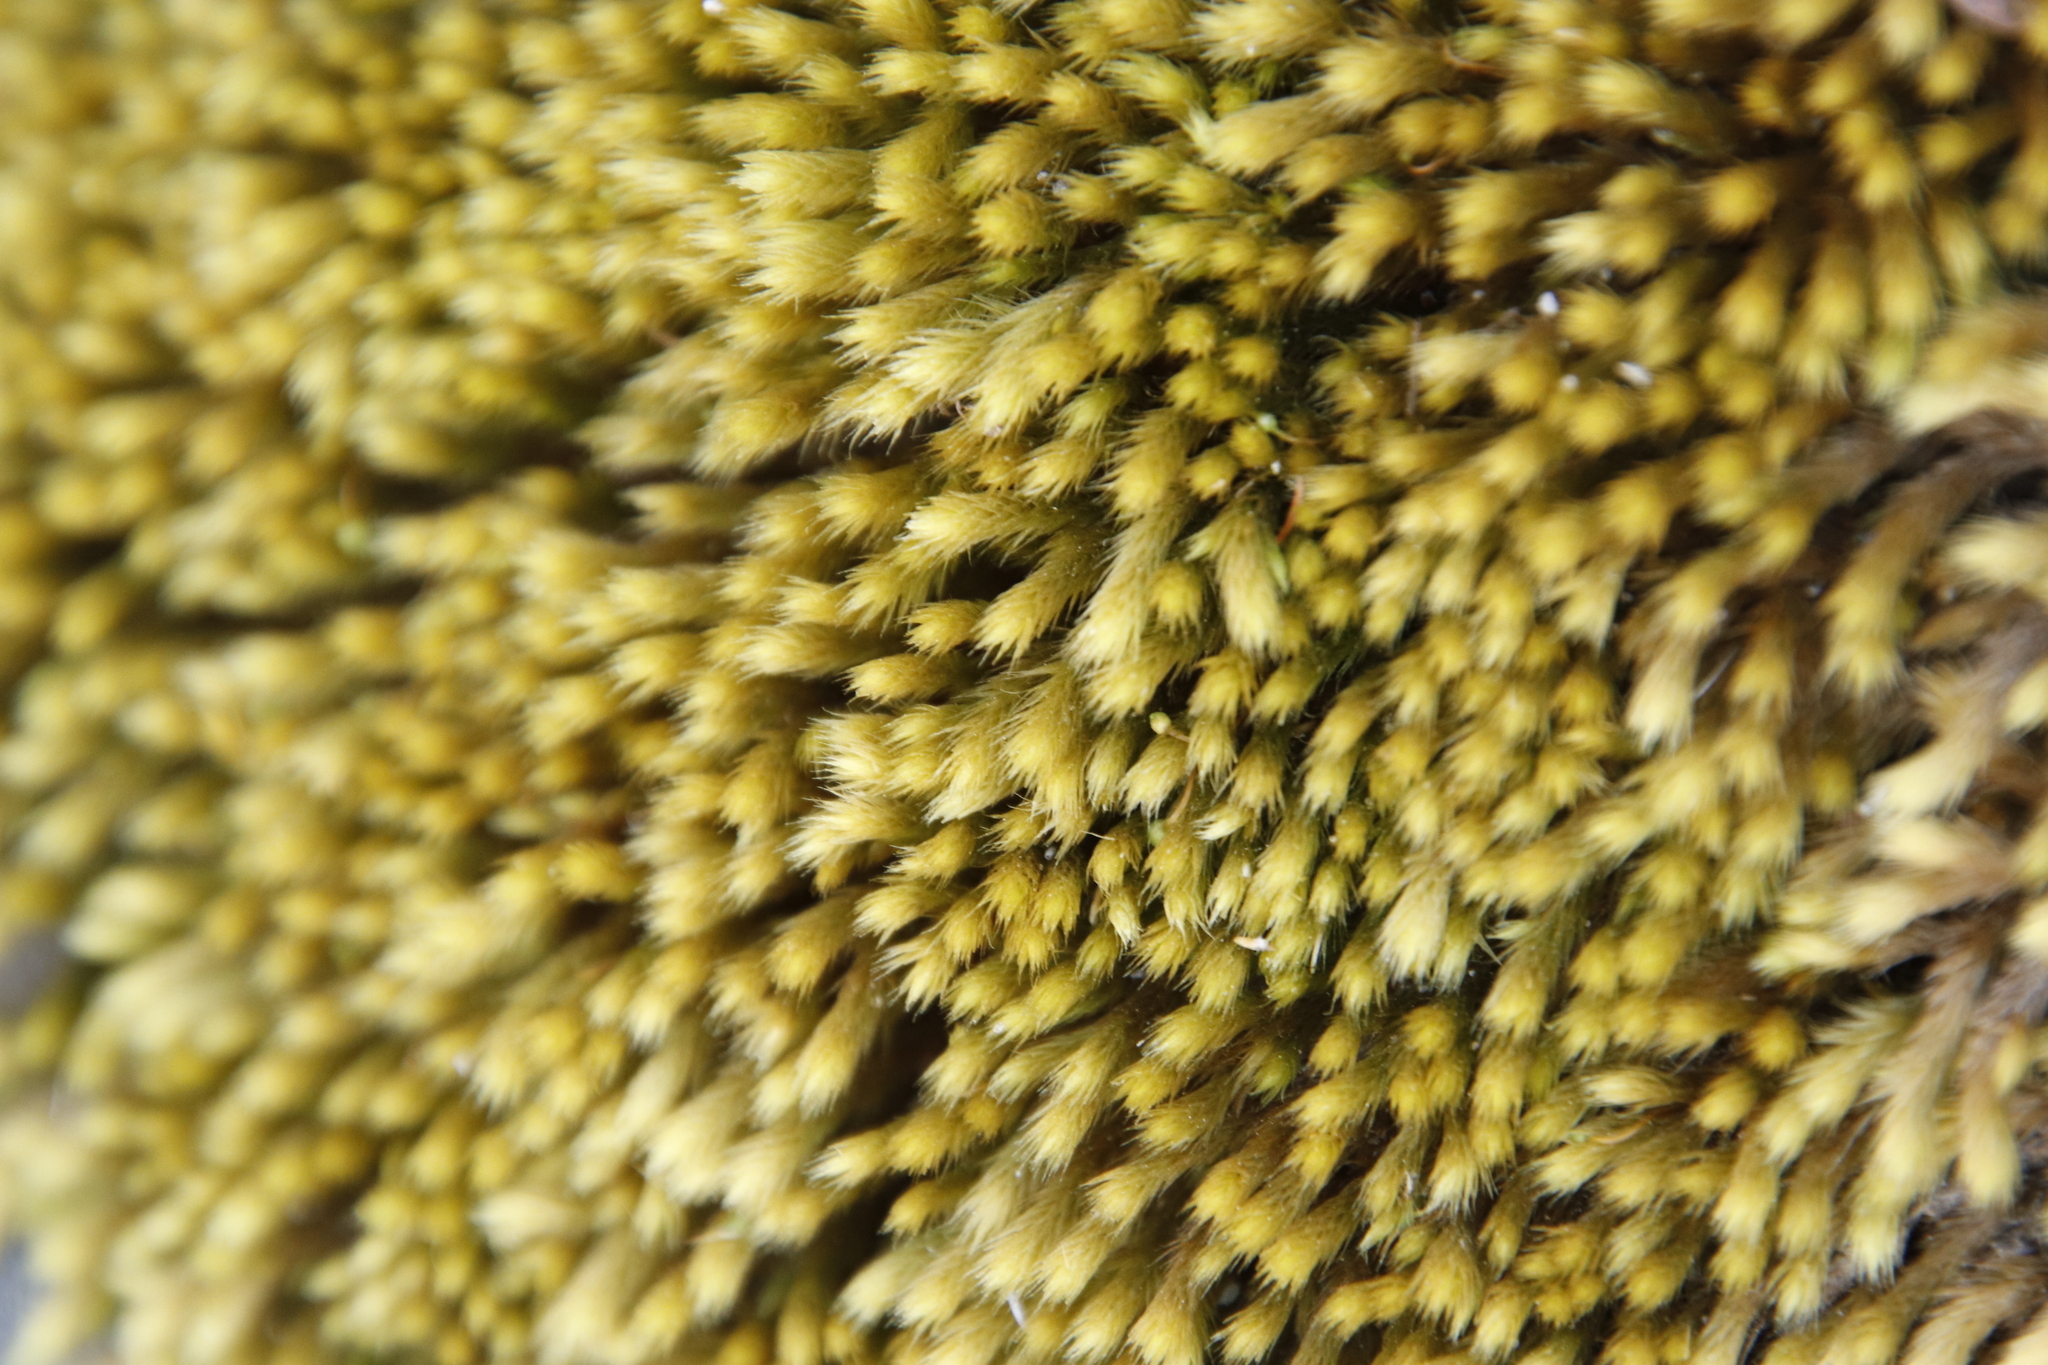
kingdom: Plantae
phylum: Bryophyta
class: Bryopsida
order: Bartramiales
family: Bartramiaceae
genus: Breutelia
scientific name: Breutelia substricta
